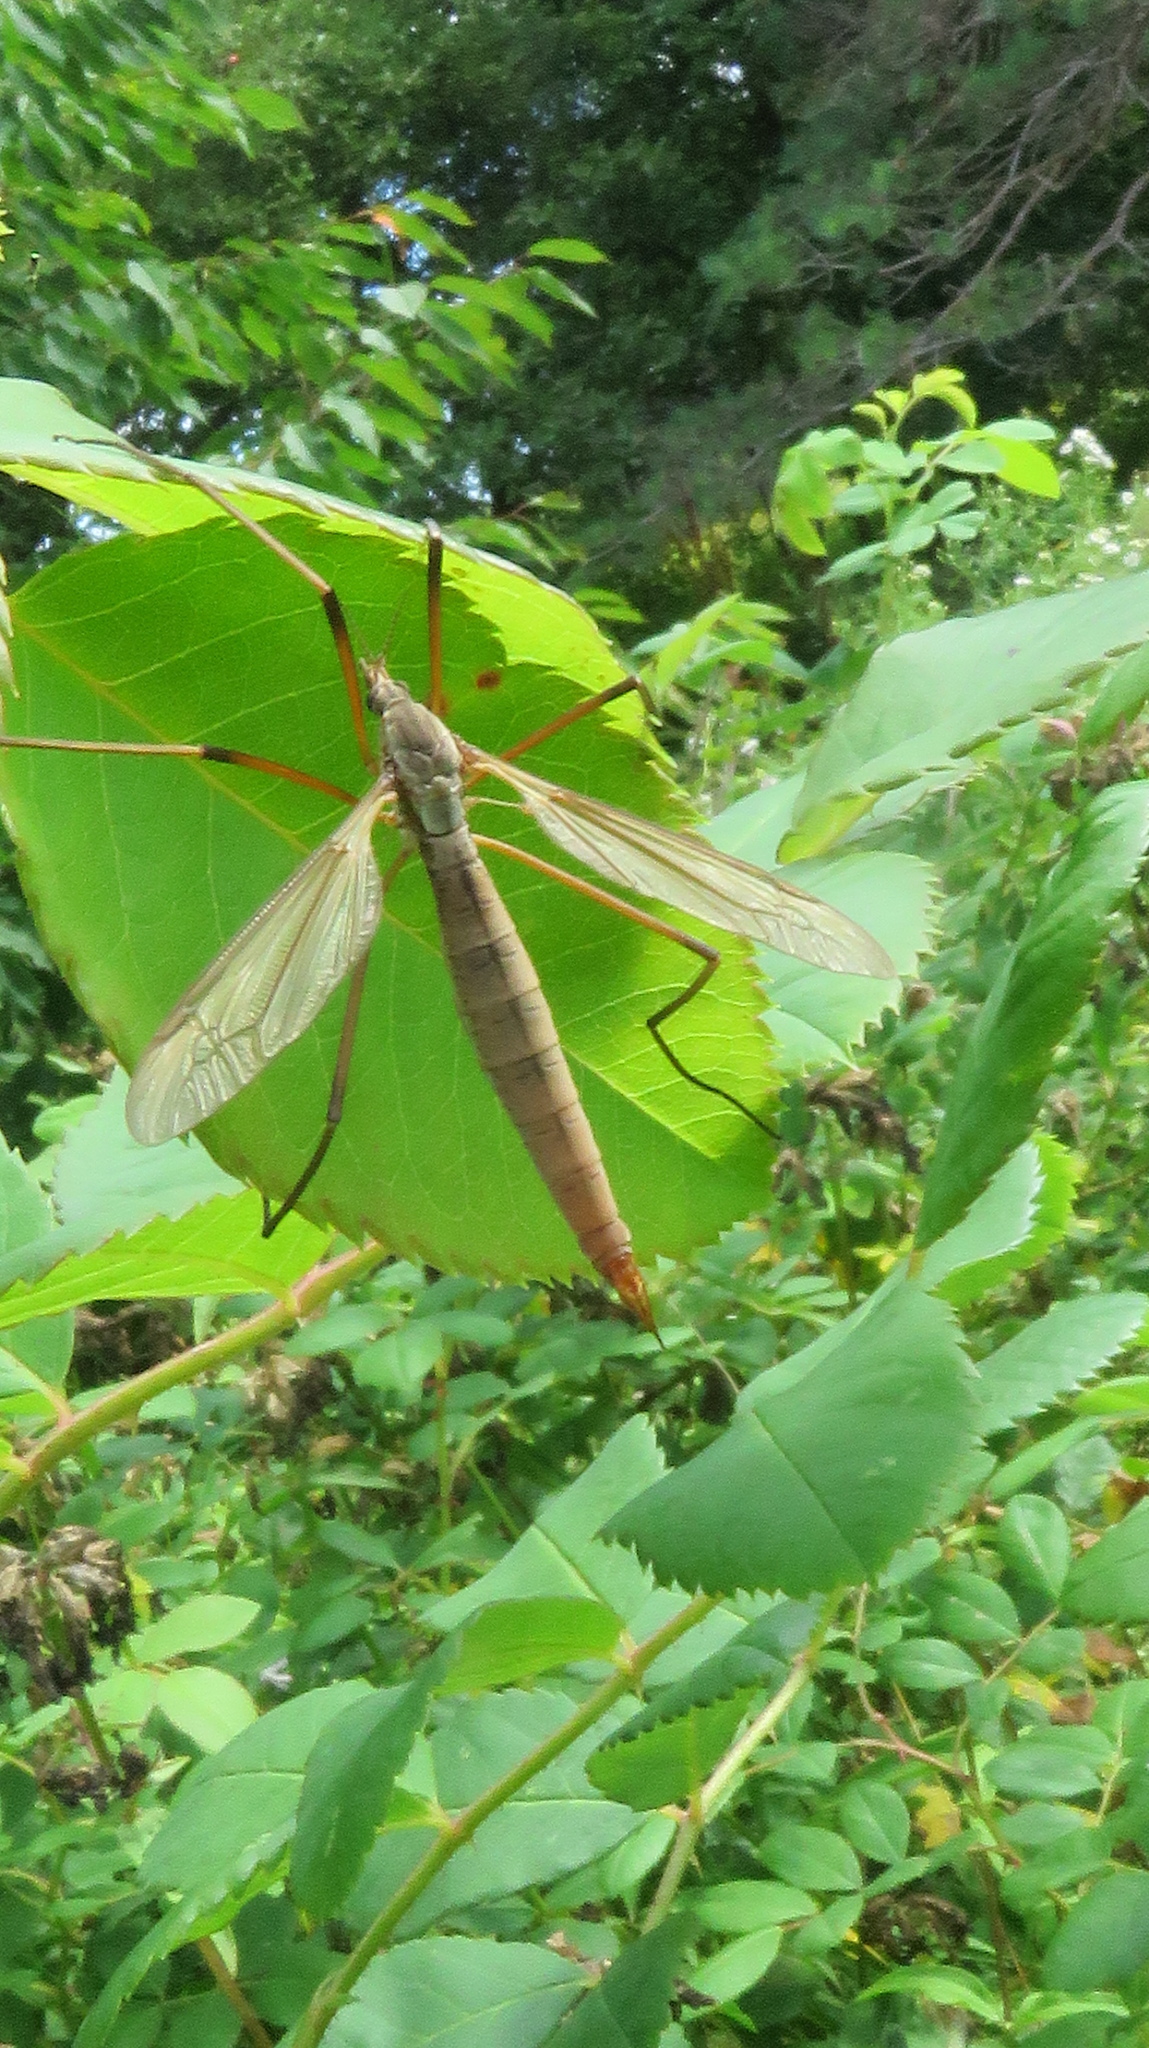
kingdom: Animalia
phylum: Arthropoda
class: Insecta
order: Diptera
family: Tipulidae
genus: Tipula
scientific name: Tipula paludosa
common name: European cranefly
